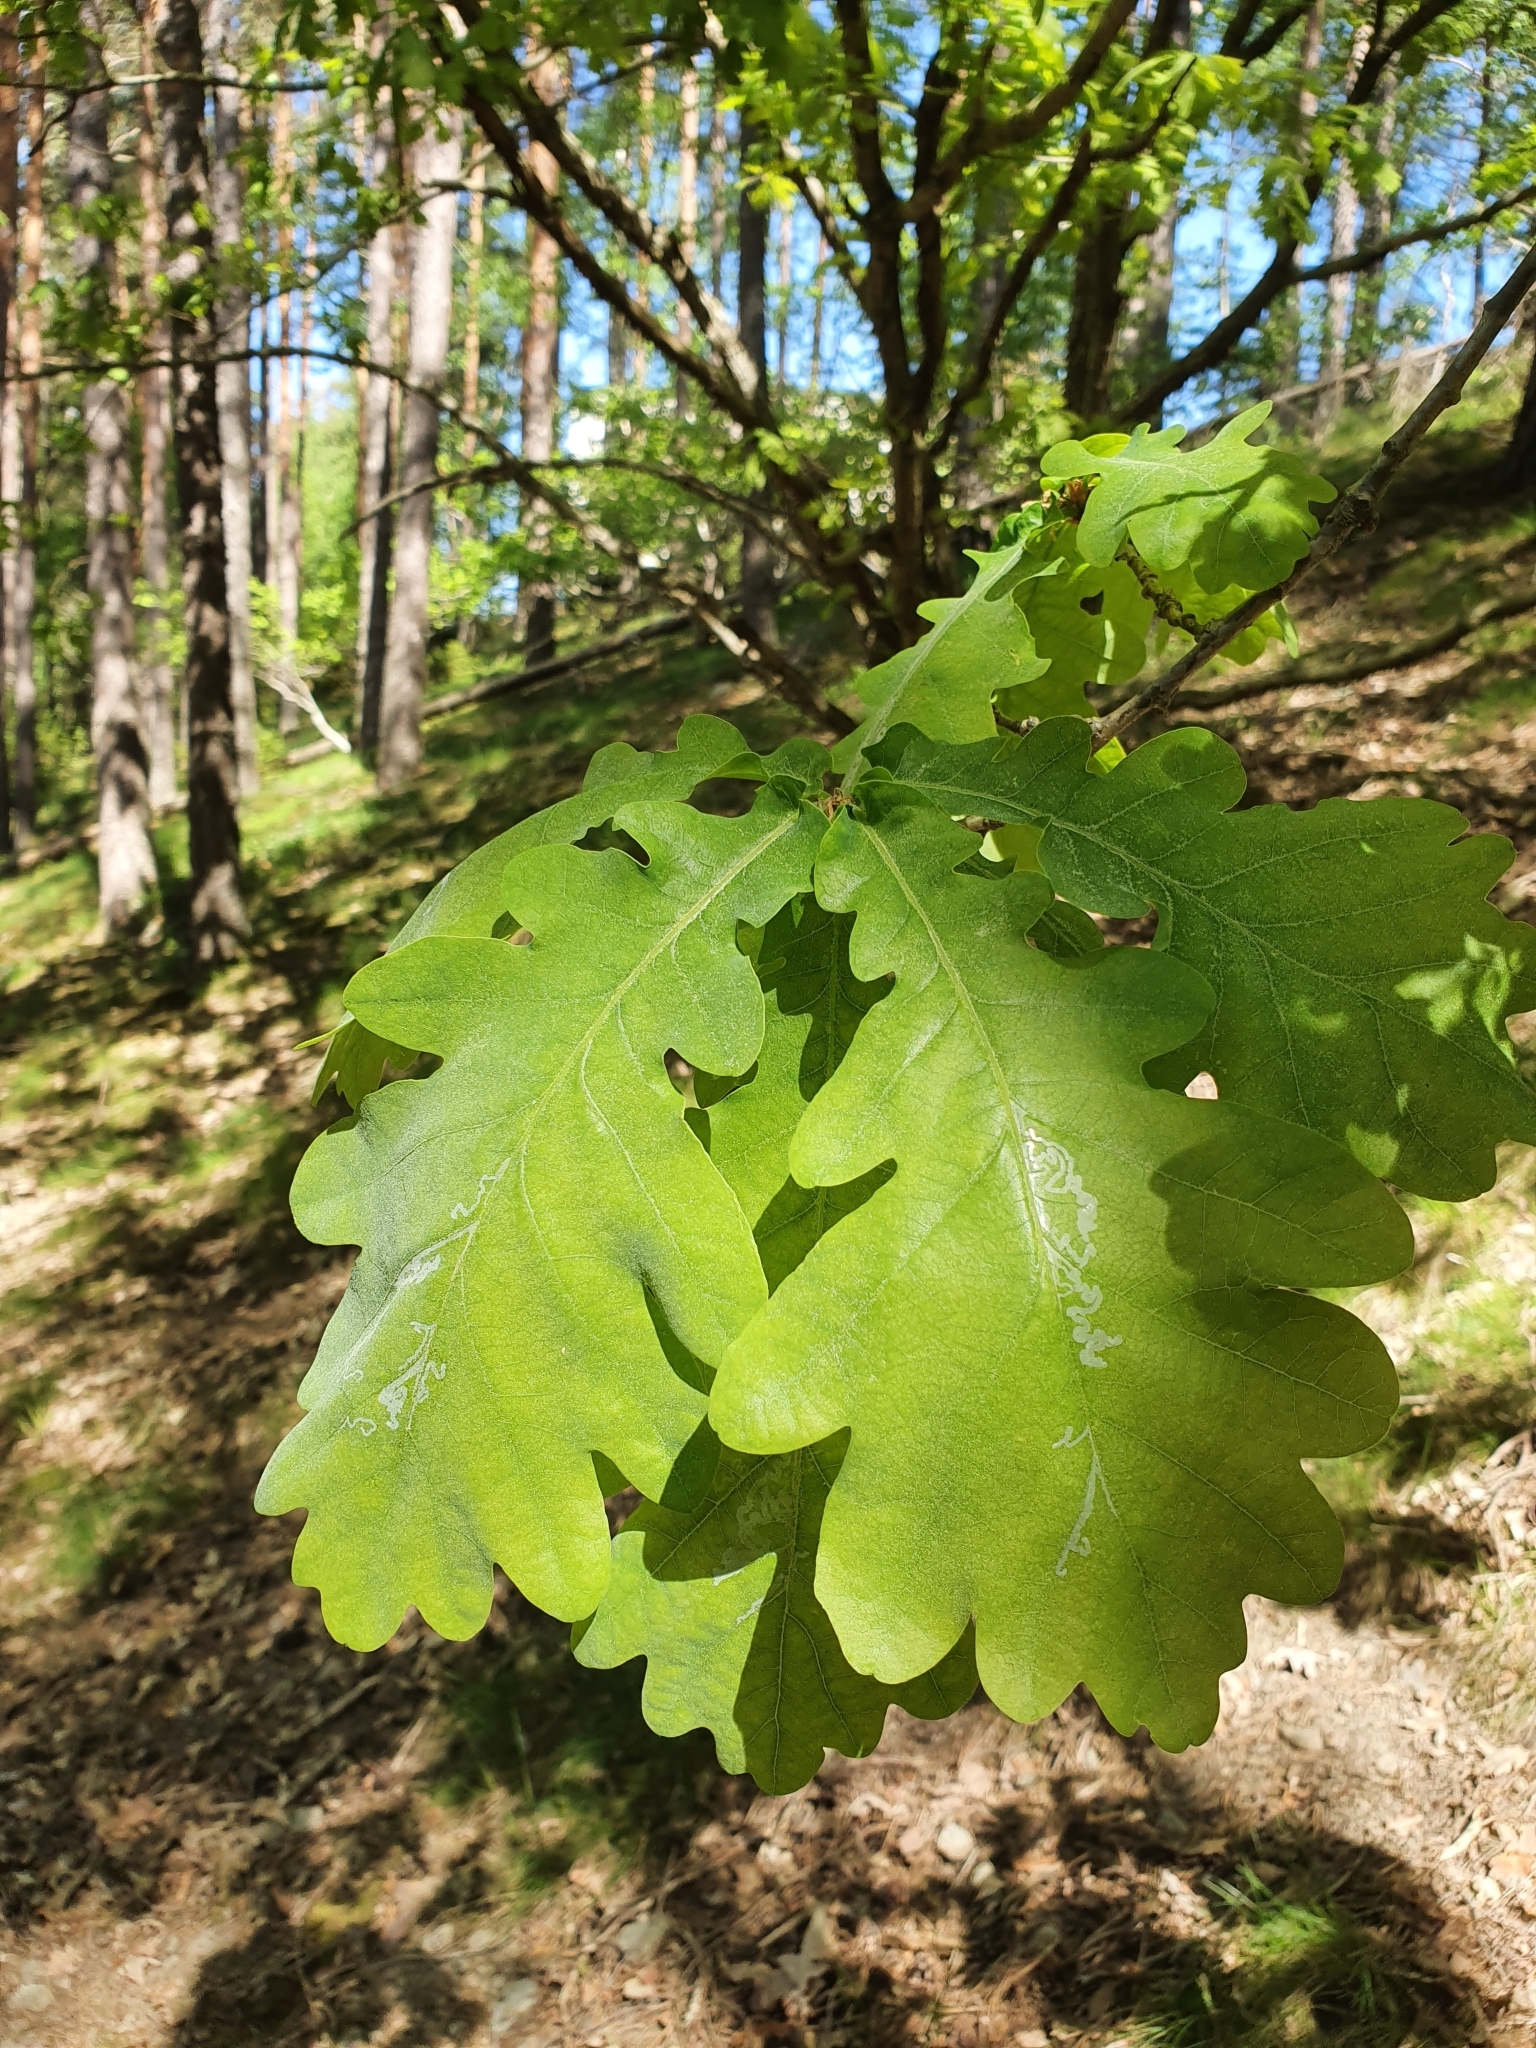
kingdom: Plantae
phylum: Tracheophyta
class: Magnoliopsida
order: Fagales
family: Fagaceae
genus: Quercus
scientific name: Quercus robur
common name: Pedunculate oak
